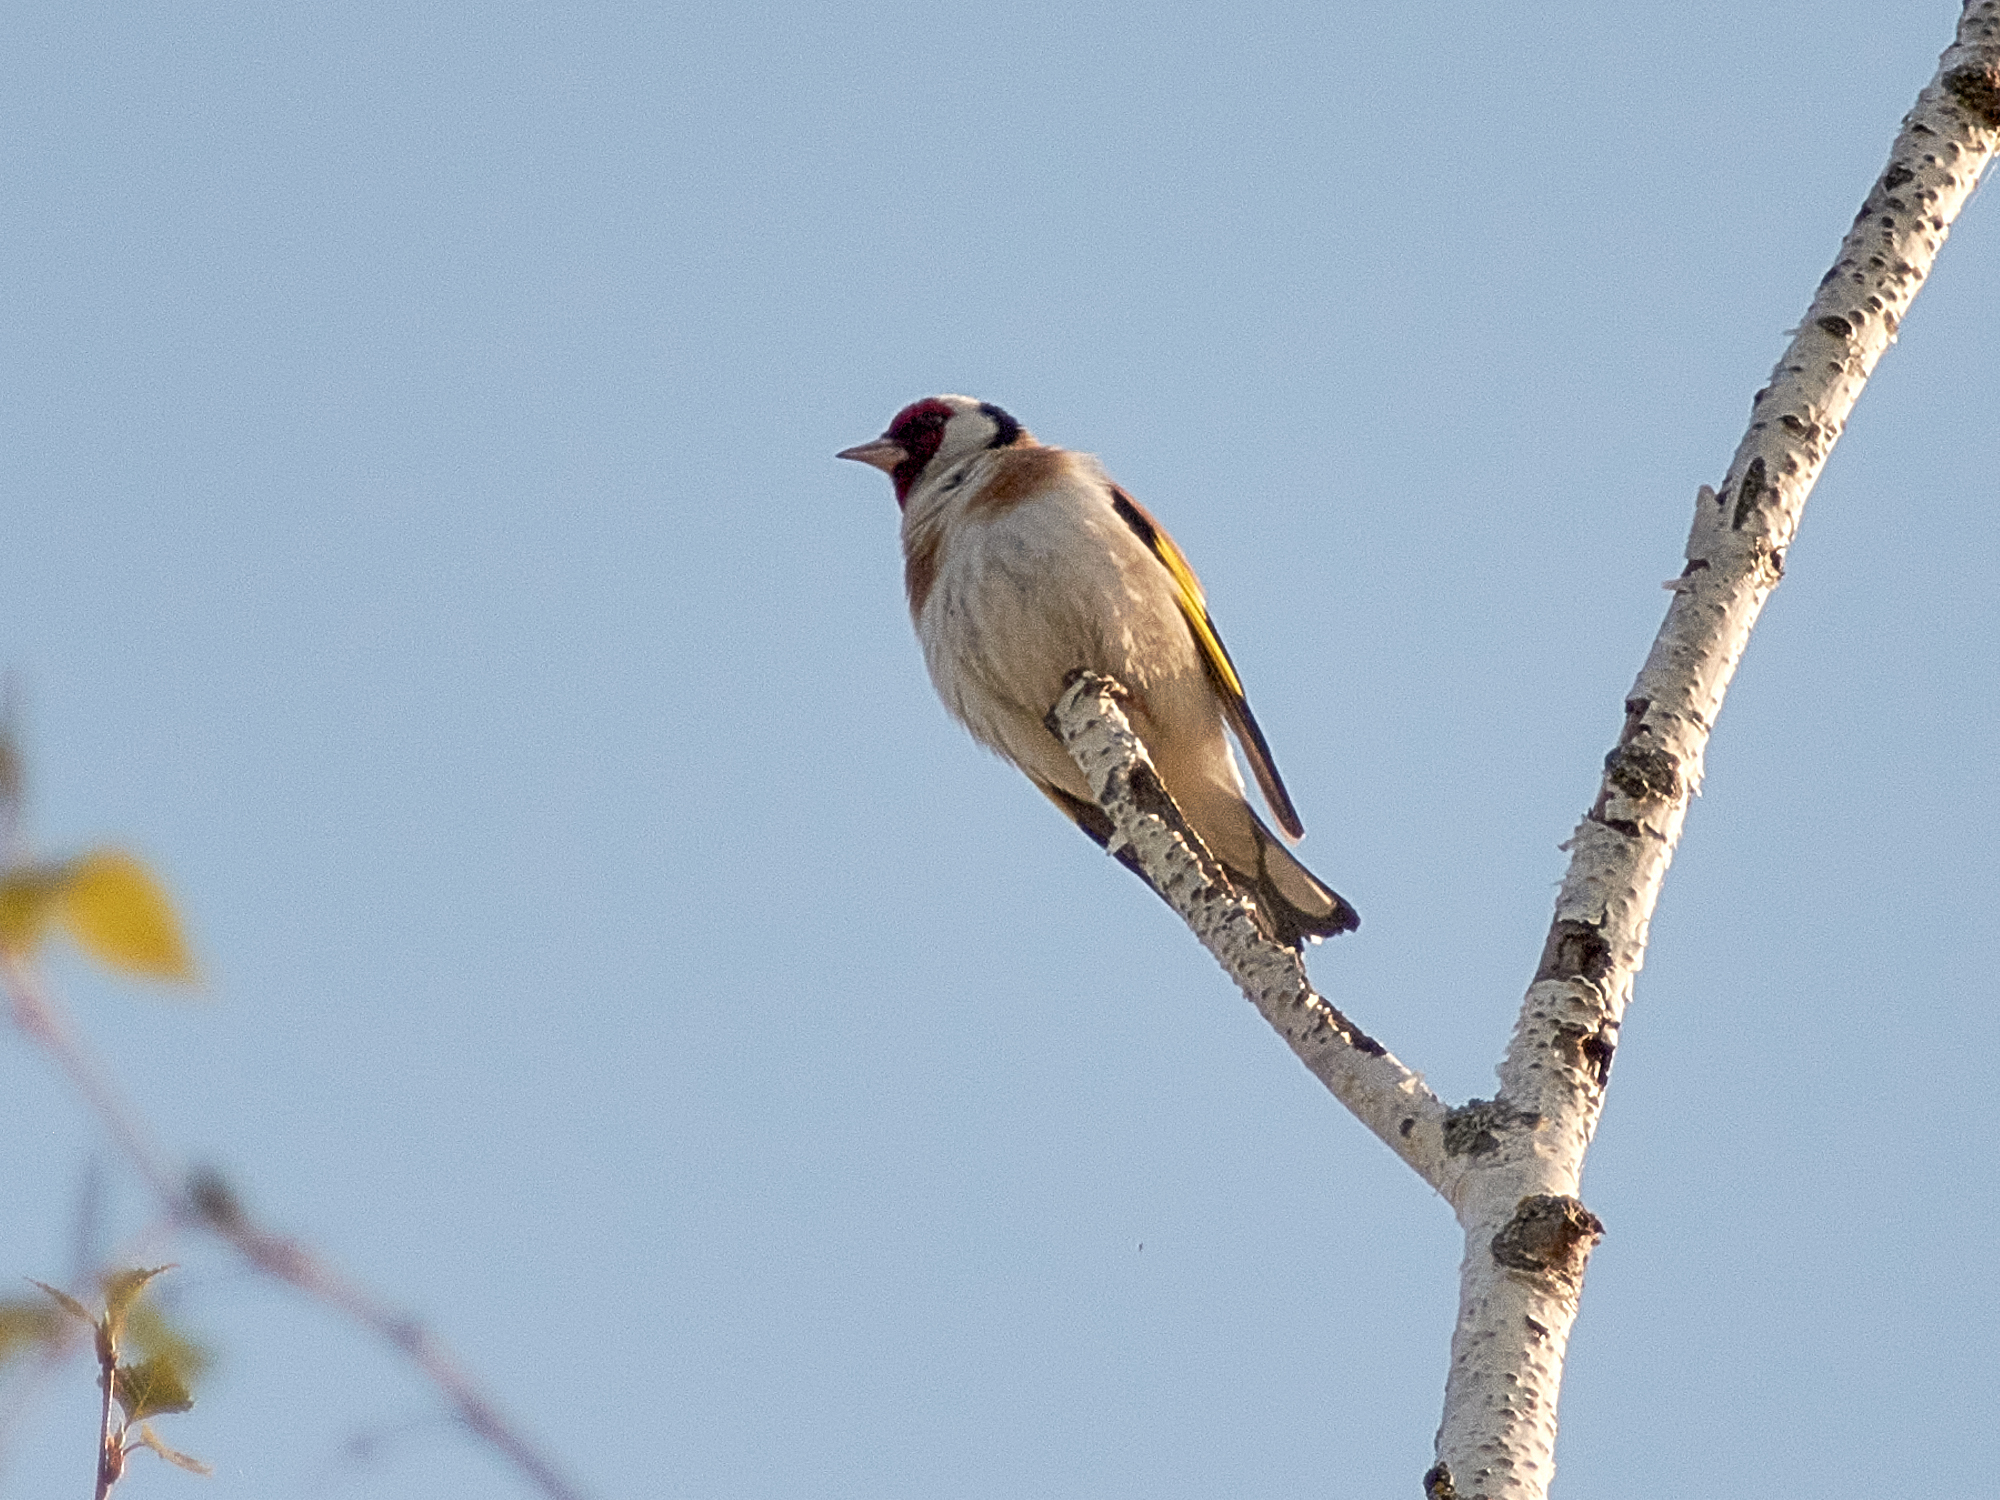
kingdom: Animalia
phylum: Chordata
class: Aves
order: Passeriformes
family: Fringillidae
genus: Carduelis
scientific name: Carduelis carduelis
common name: European goldfinch
